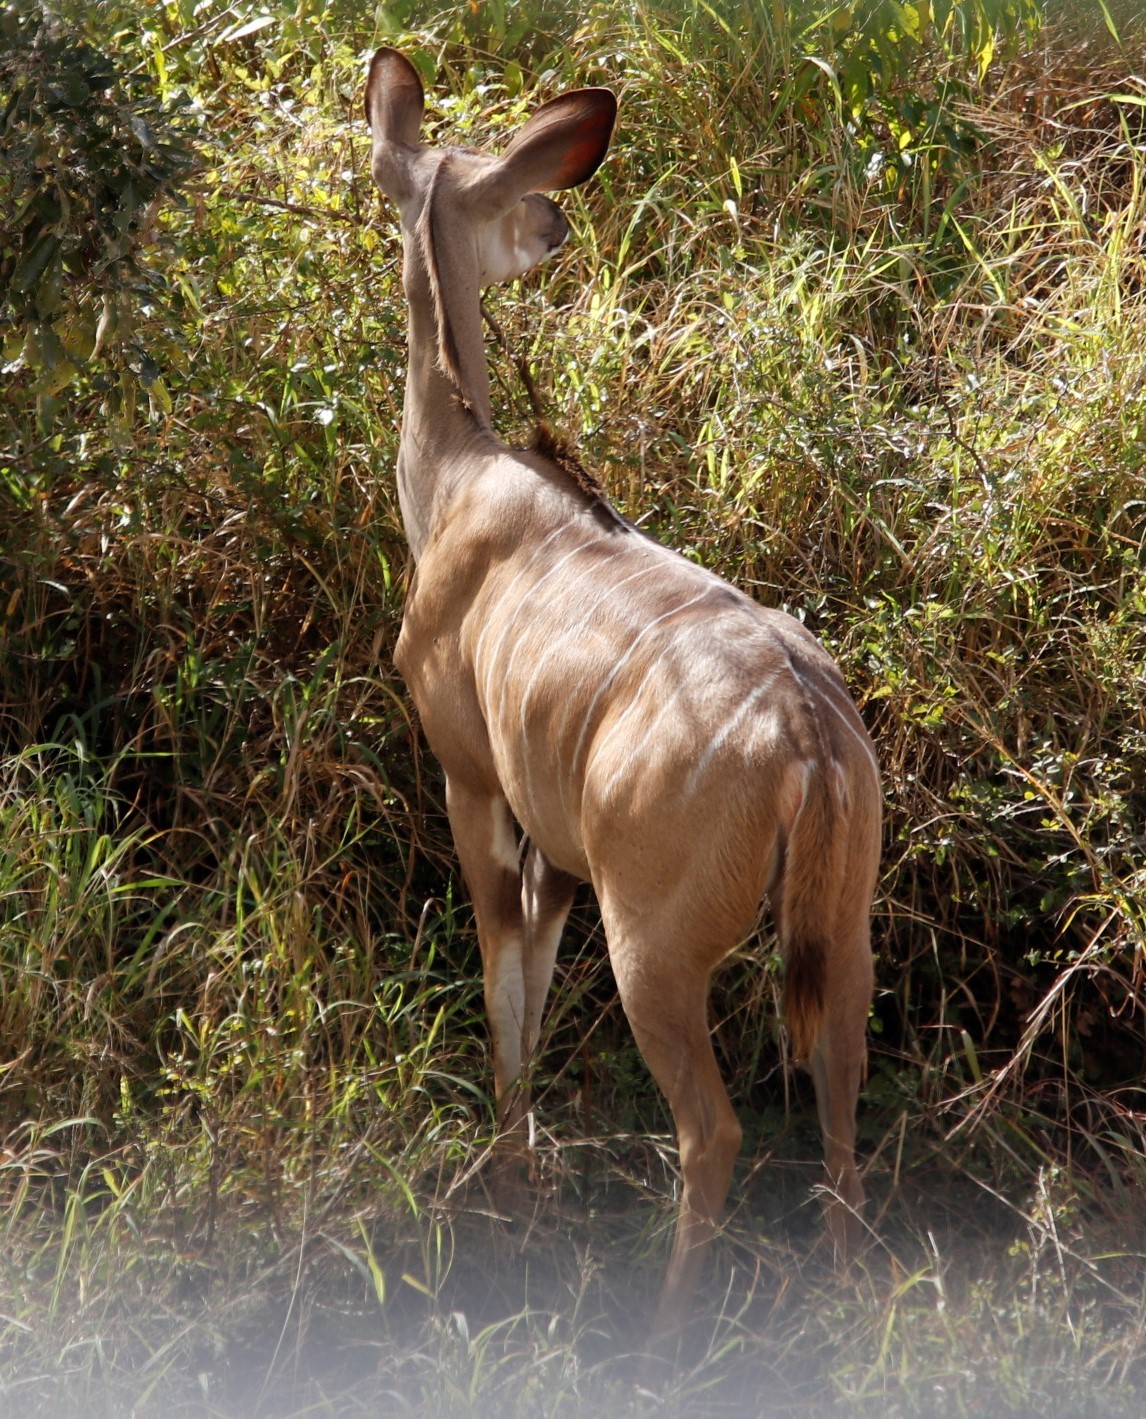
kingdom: Animalia
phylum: Chordata
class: Mammalia
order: Artiodactyla
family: Bovidae
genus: Tragelaphus
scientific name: Tragelaphus strepsiceros
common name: Greater kudu
